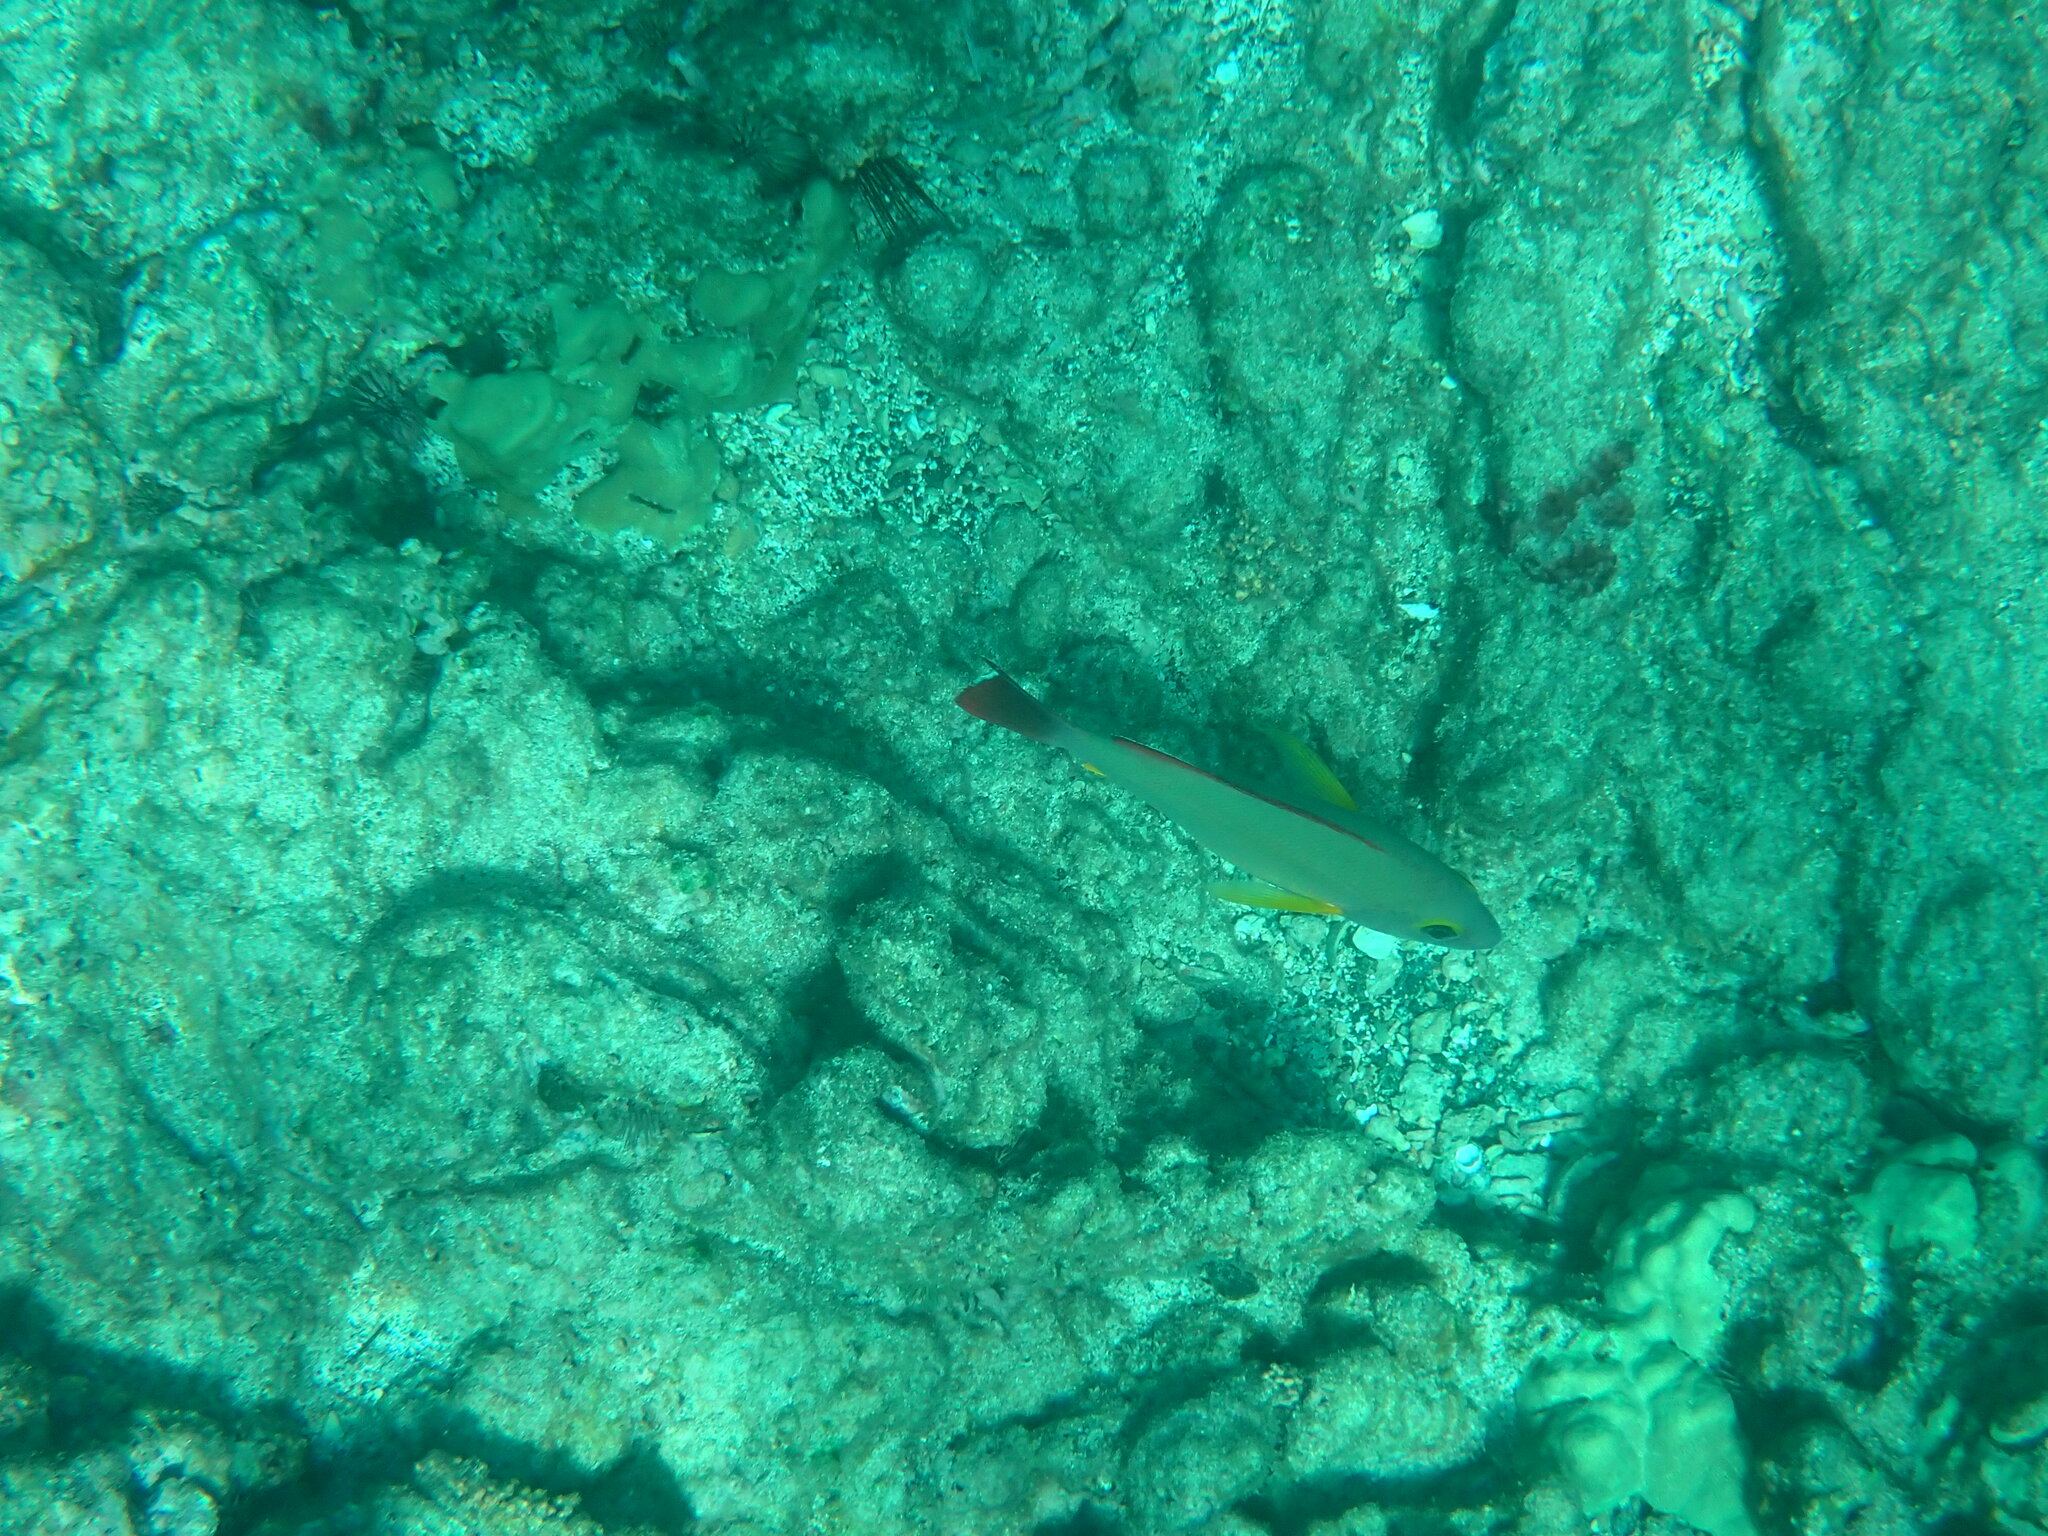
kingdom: Animalia
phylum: Chordata
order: Perciformes
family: Lutjanidae
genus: Lutjanus
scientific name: Lutjanus fulvus
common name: Blacktail snapper
